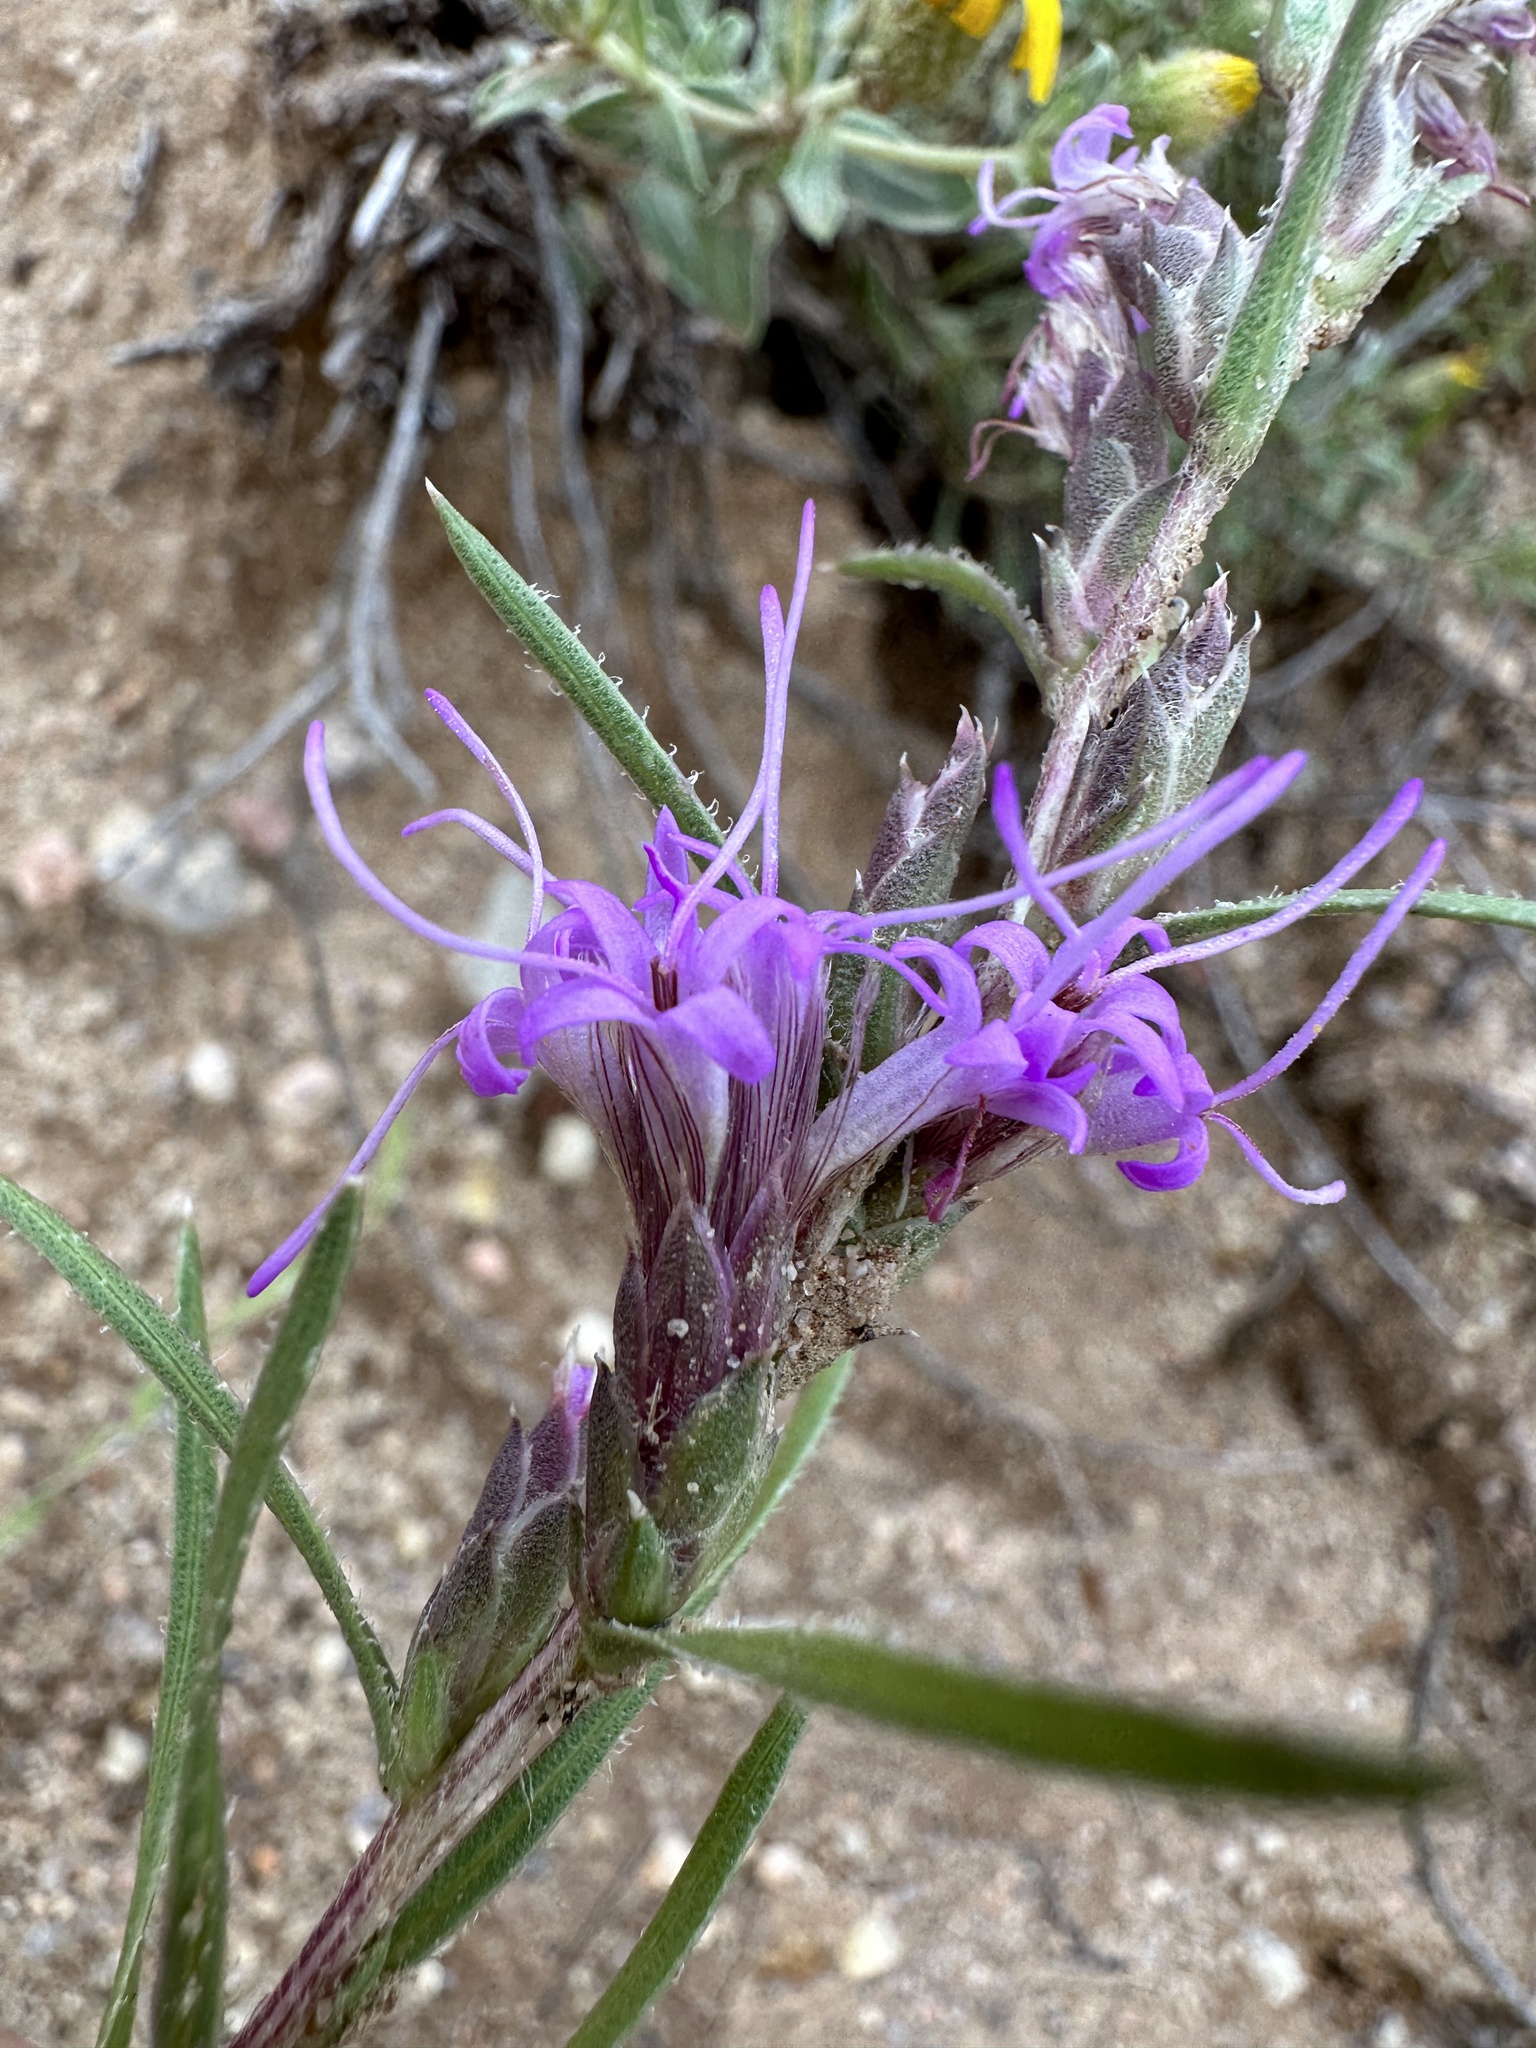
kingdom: Plantae
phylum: Tracheophyta
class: Magnoliopsida
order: Asterales
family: Asteraceae
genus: Liatris
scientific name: Liatris punctata
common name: Dotted gayfeather
